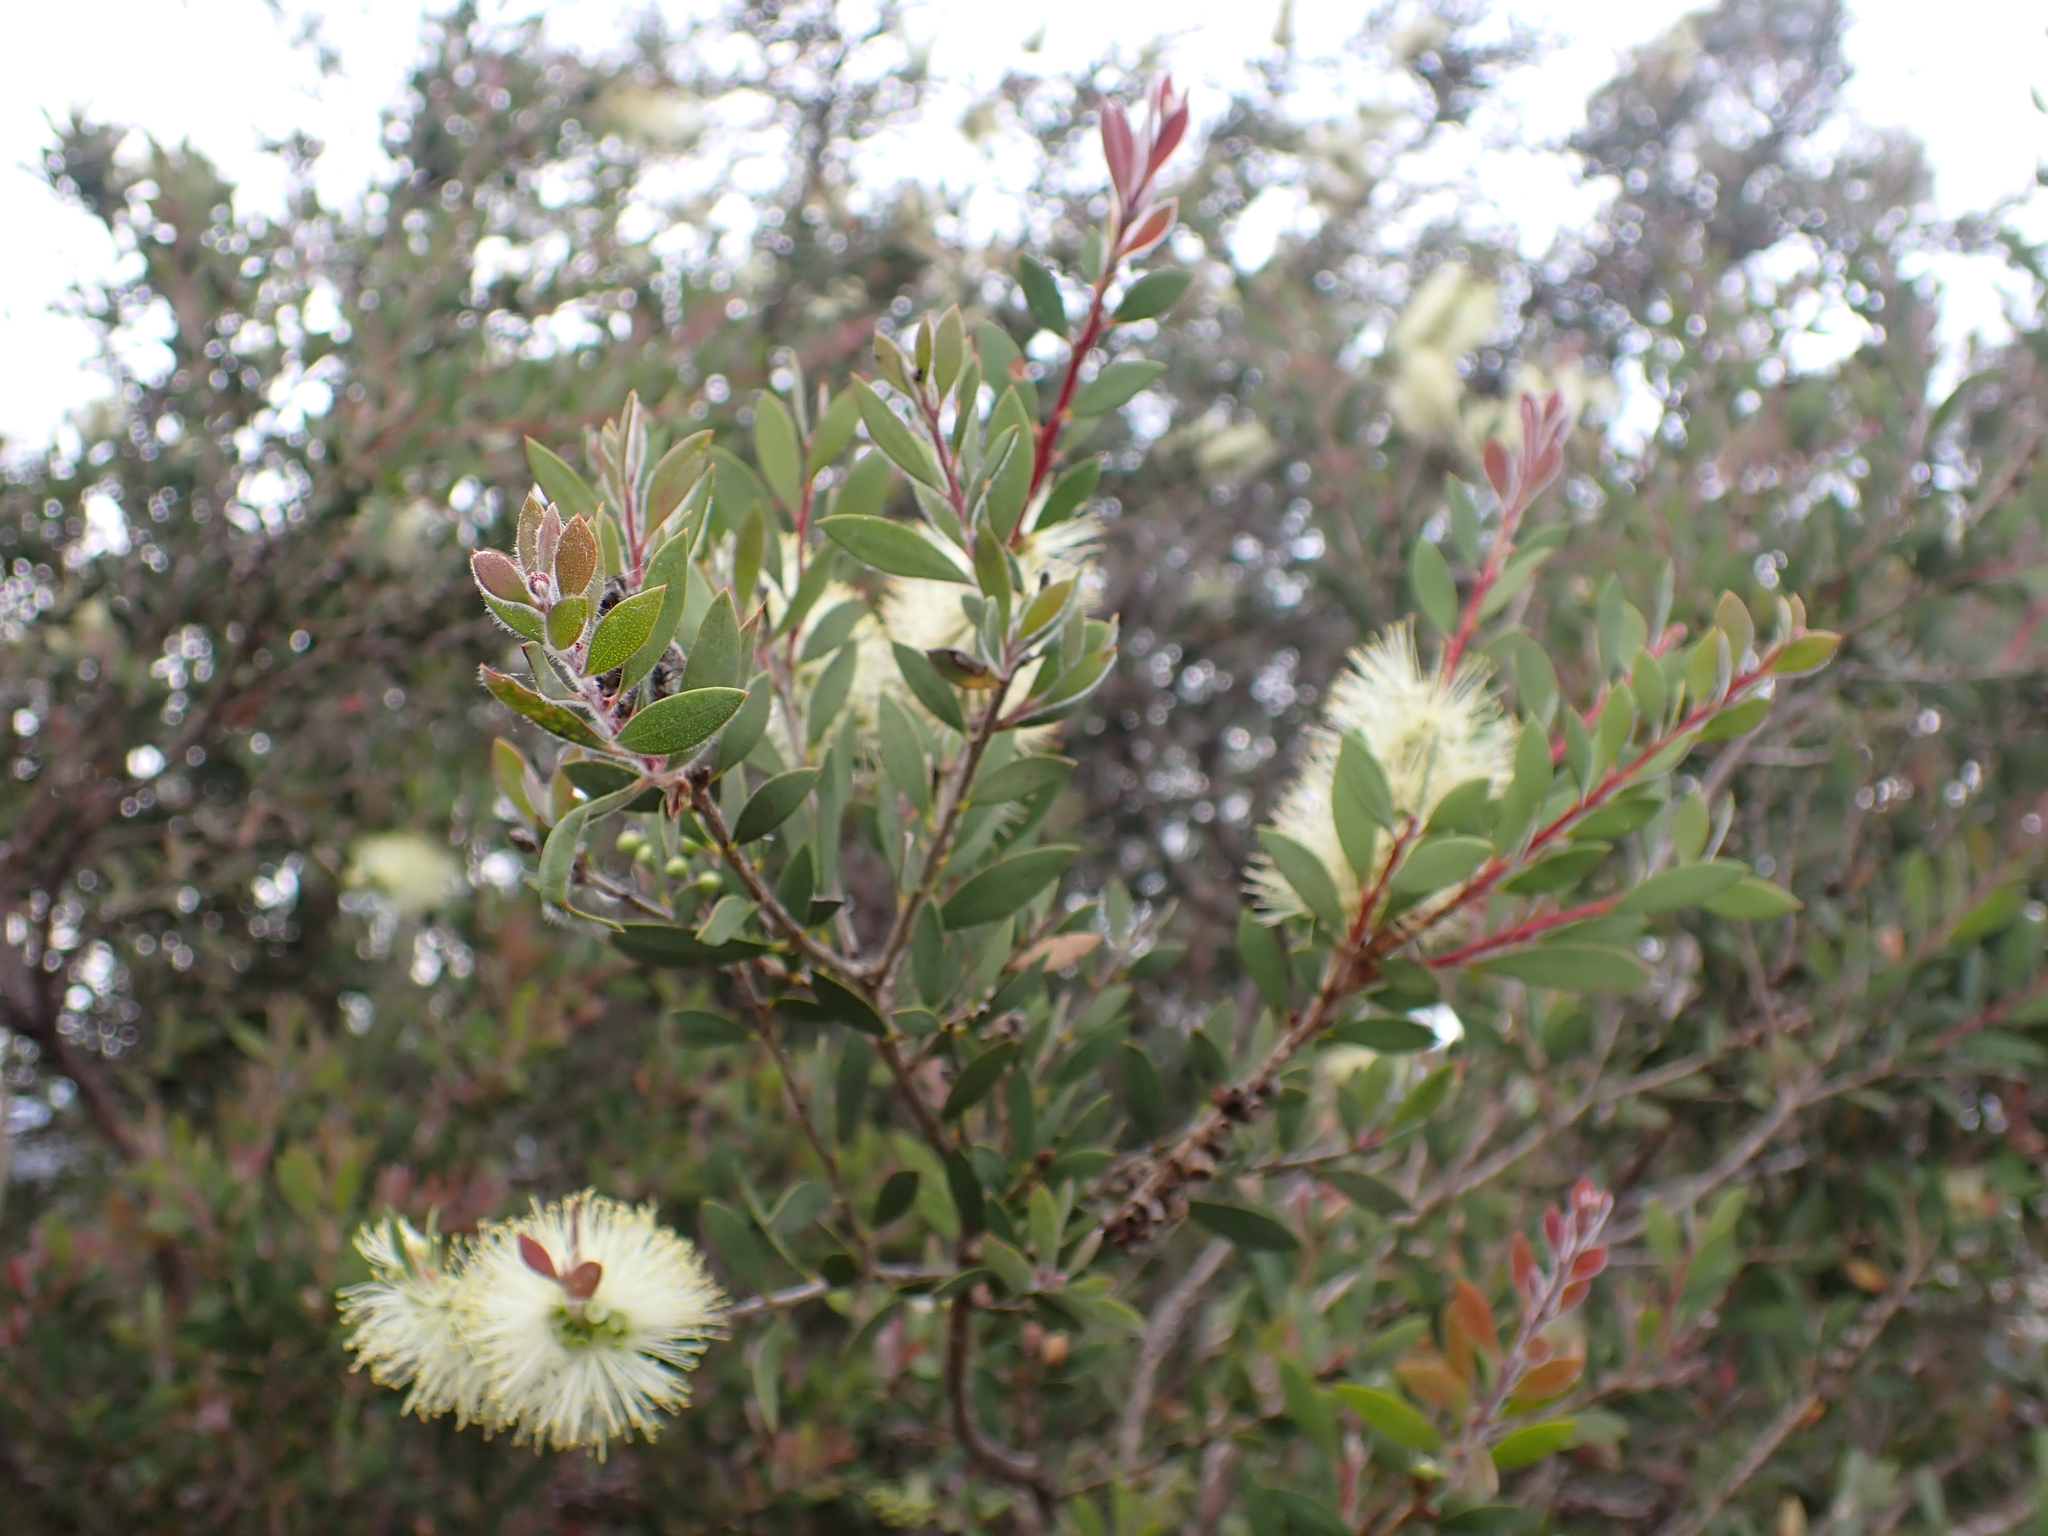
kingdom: Plantae
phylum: Tracheophyta
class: Magnoliopsida
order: Myrtales
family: Myrtaceae
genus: Melaleuca
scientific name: Melaleuca pallida
